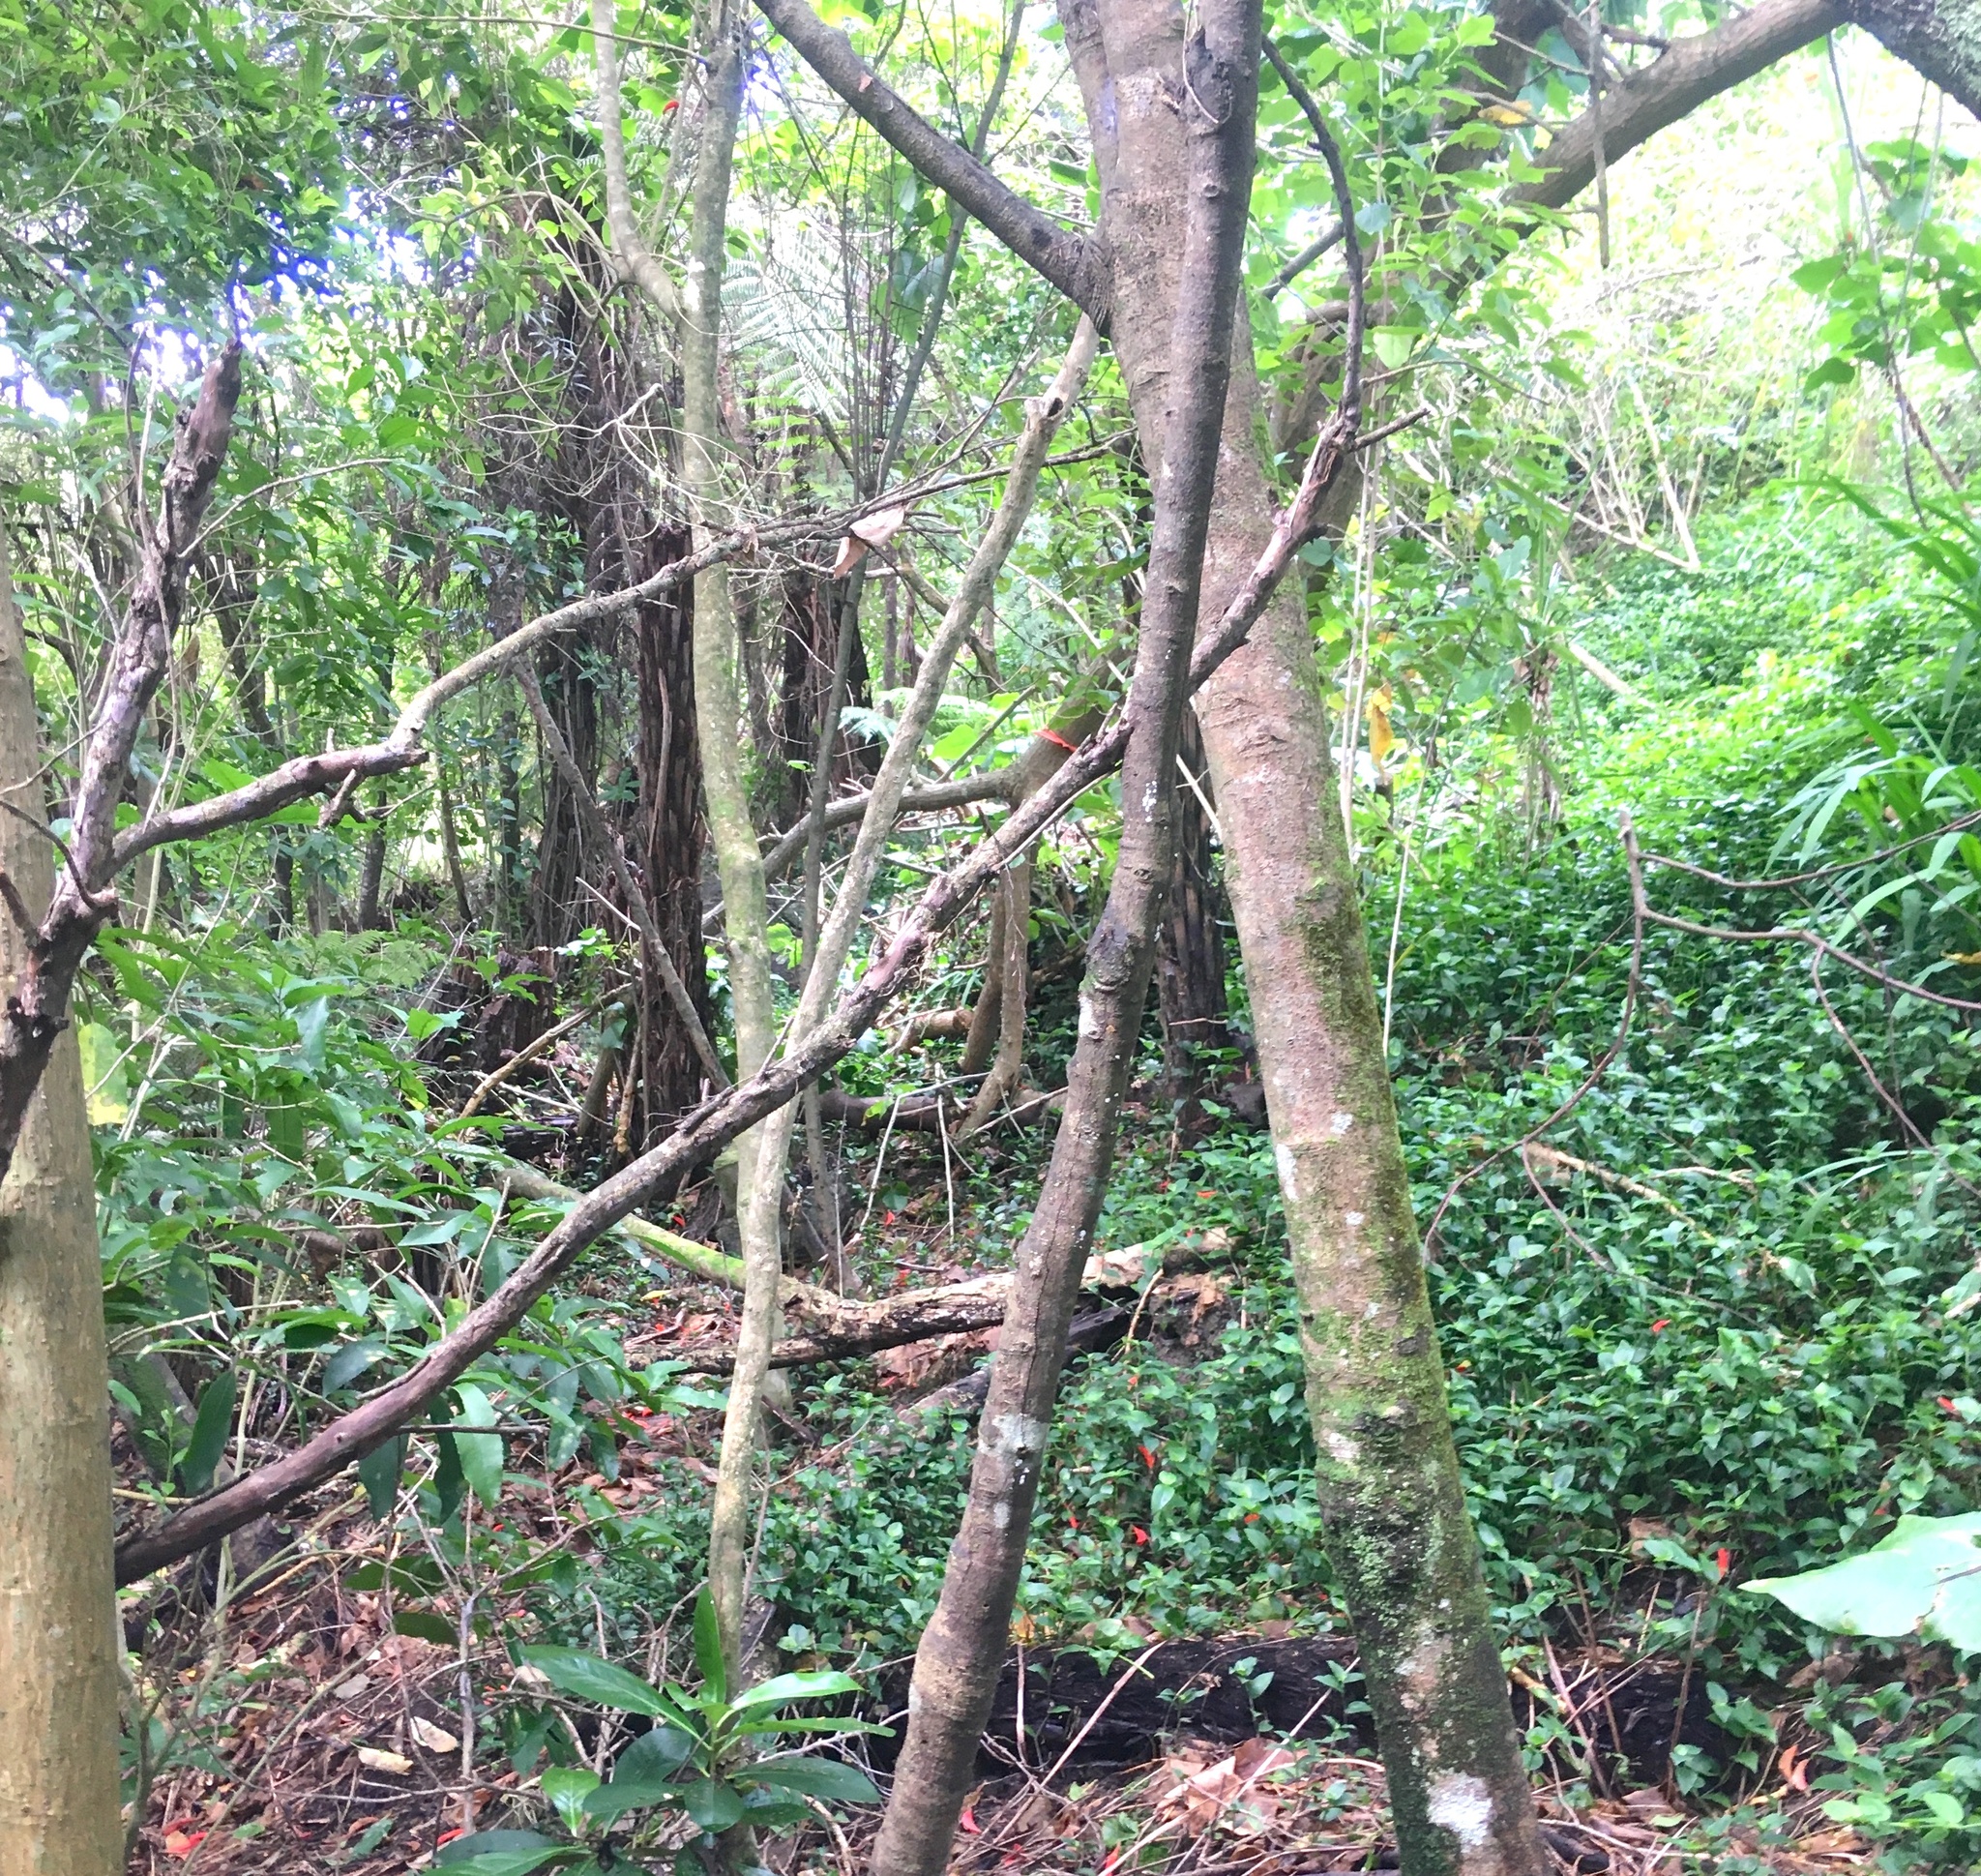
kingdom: Plantae
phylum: Tracheophyta
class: Liliopsida
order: Commelinales
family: Commelinaceae
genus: Tradescantia
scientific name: Tradescantia fluminensis
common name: Wandering-jew
